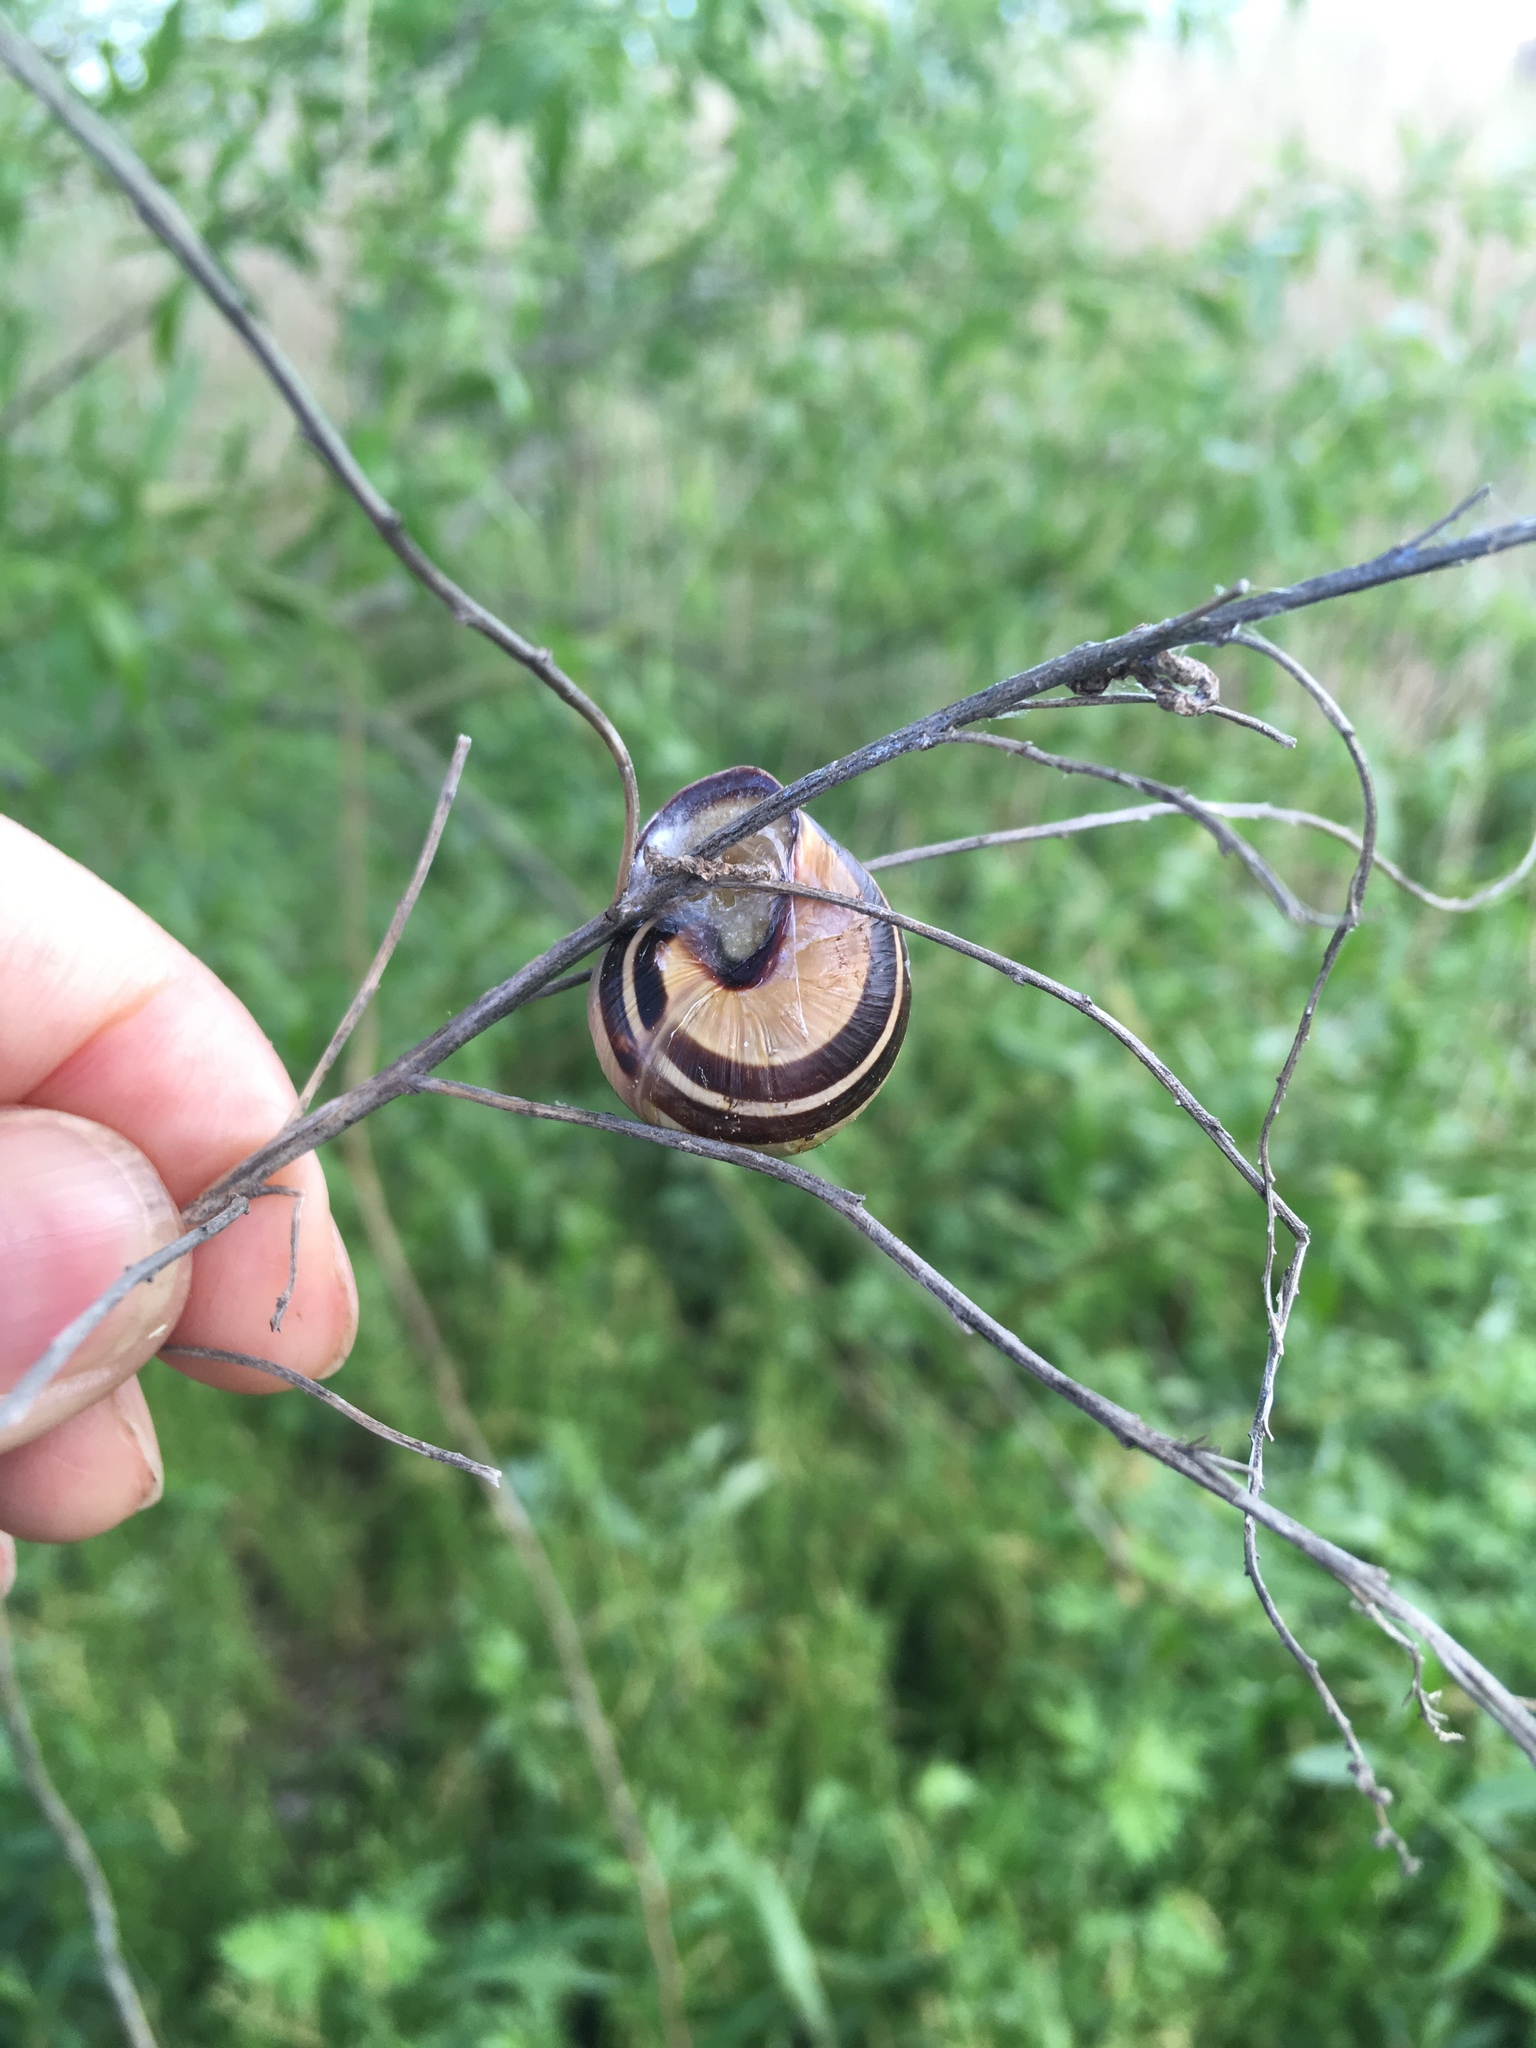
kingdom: Animalia
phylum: Mollusca
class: Gastropoda
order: Stylommatophora
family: Helicidae
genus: Cepaea
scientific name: Cepaea nemoralis
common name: Grovesnail
